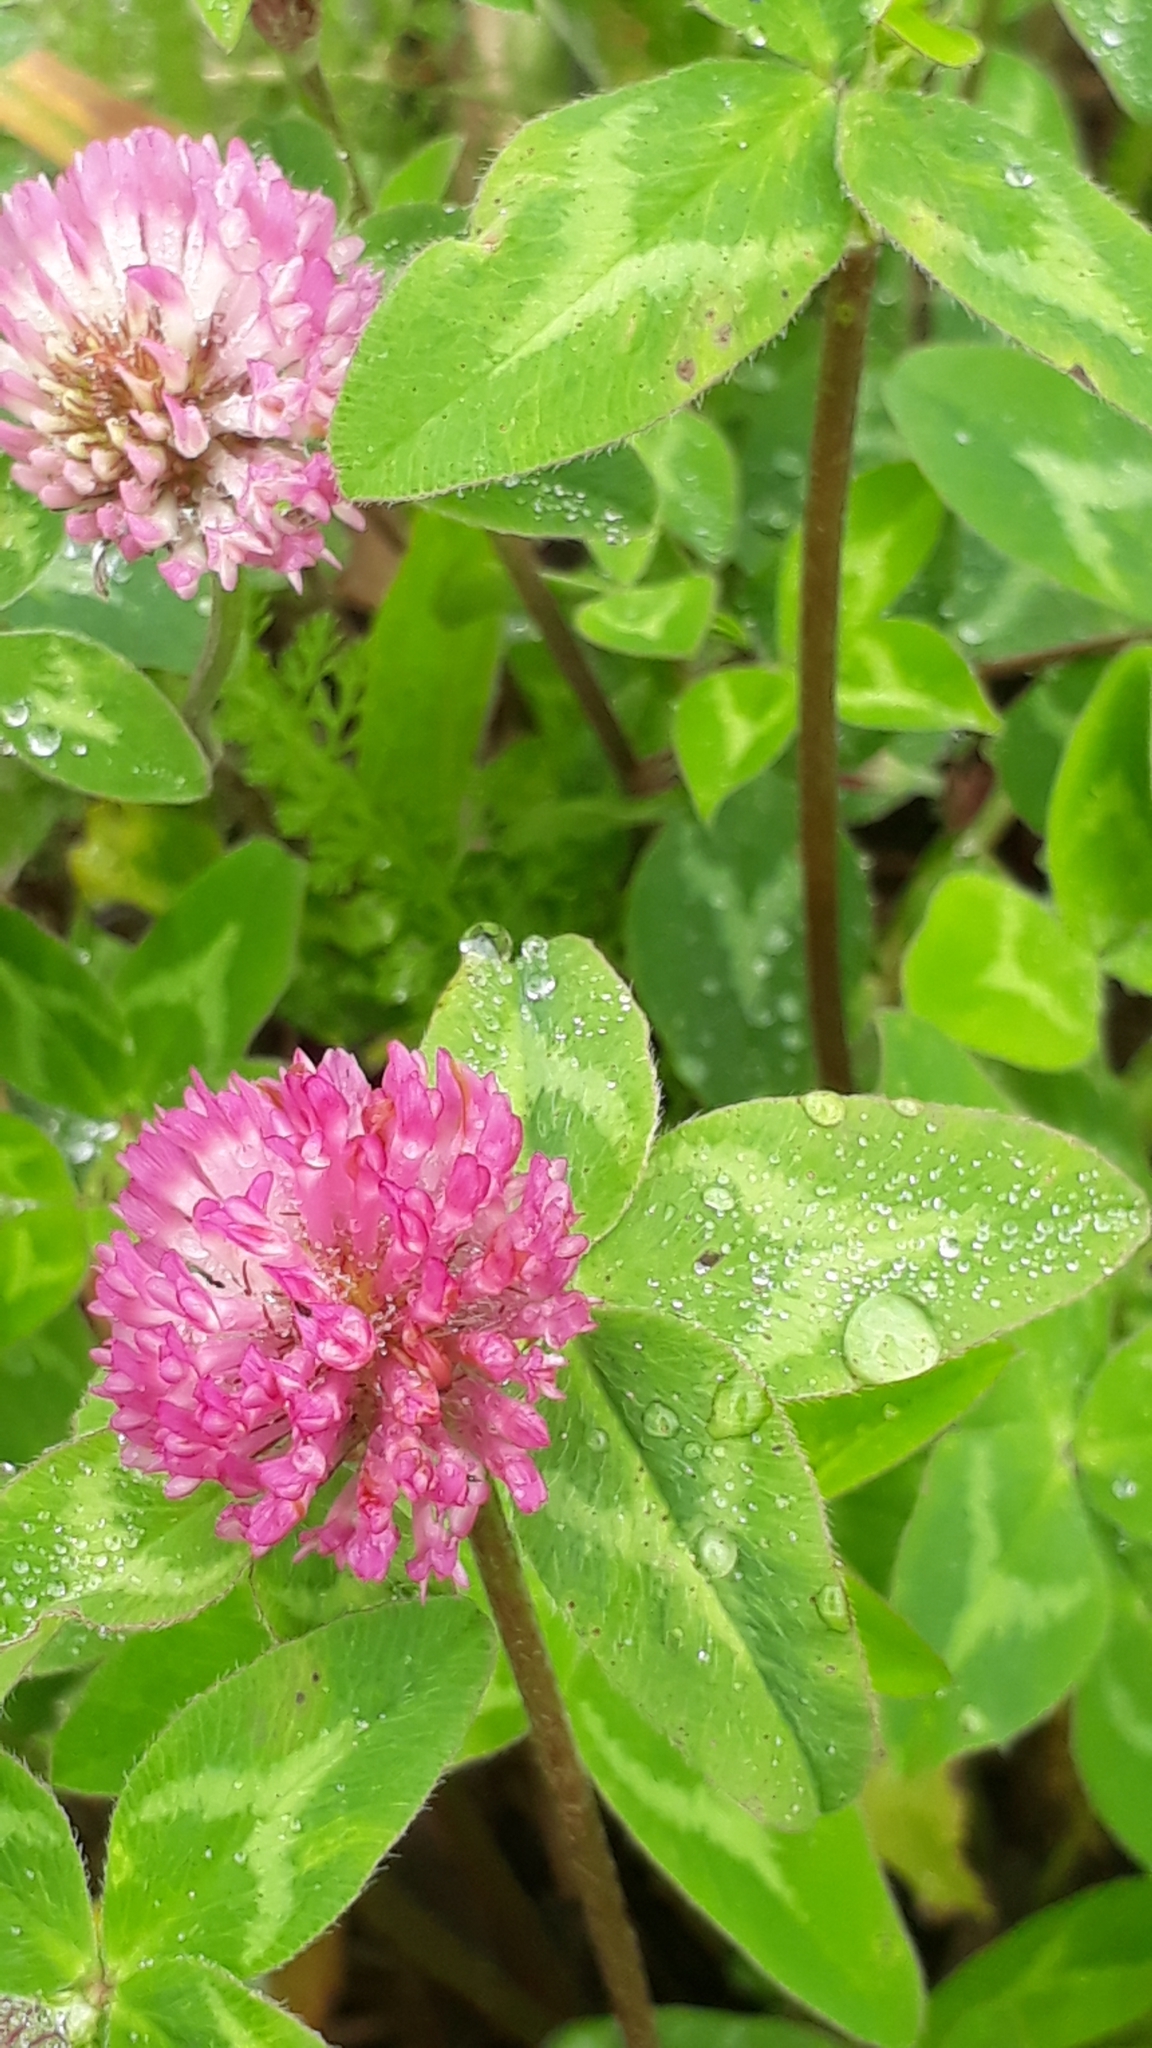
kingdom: Plantae
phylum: Tracheophyta
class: Magnoliopsida
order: Fabales
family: Fabaceae
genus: Trifolium
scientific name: Trifolium pratense
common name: Red clover
